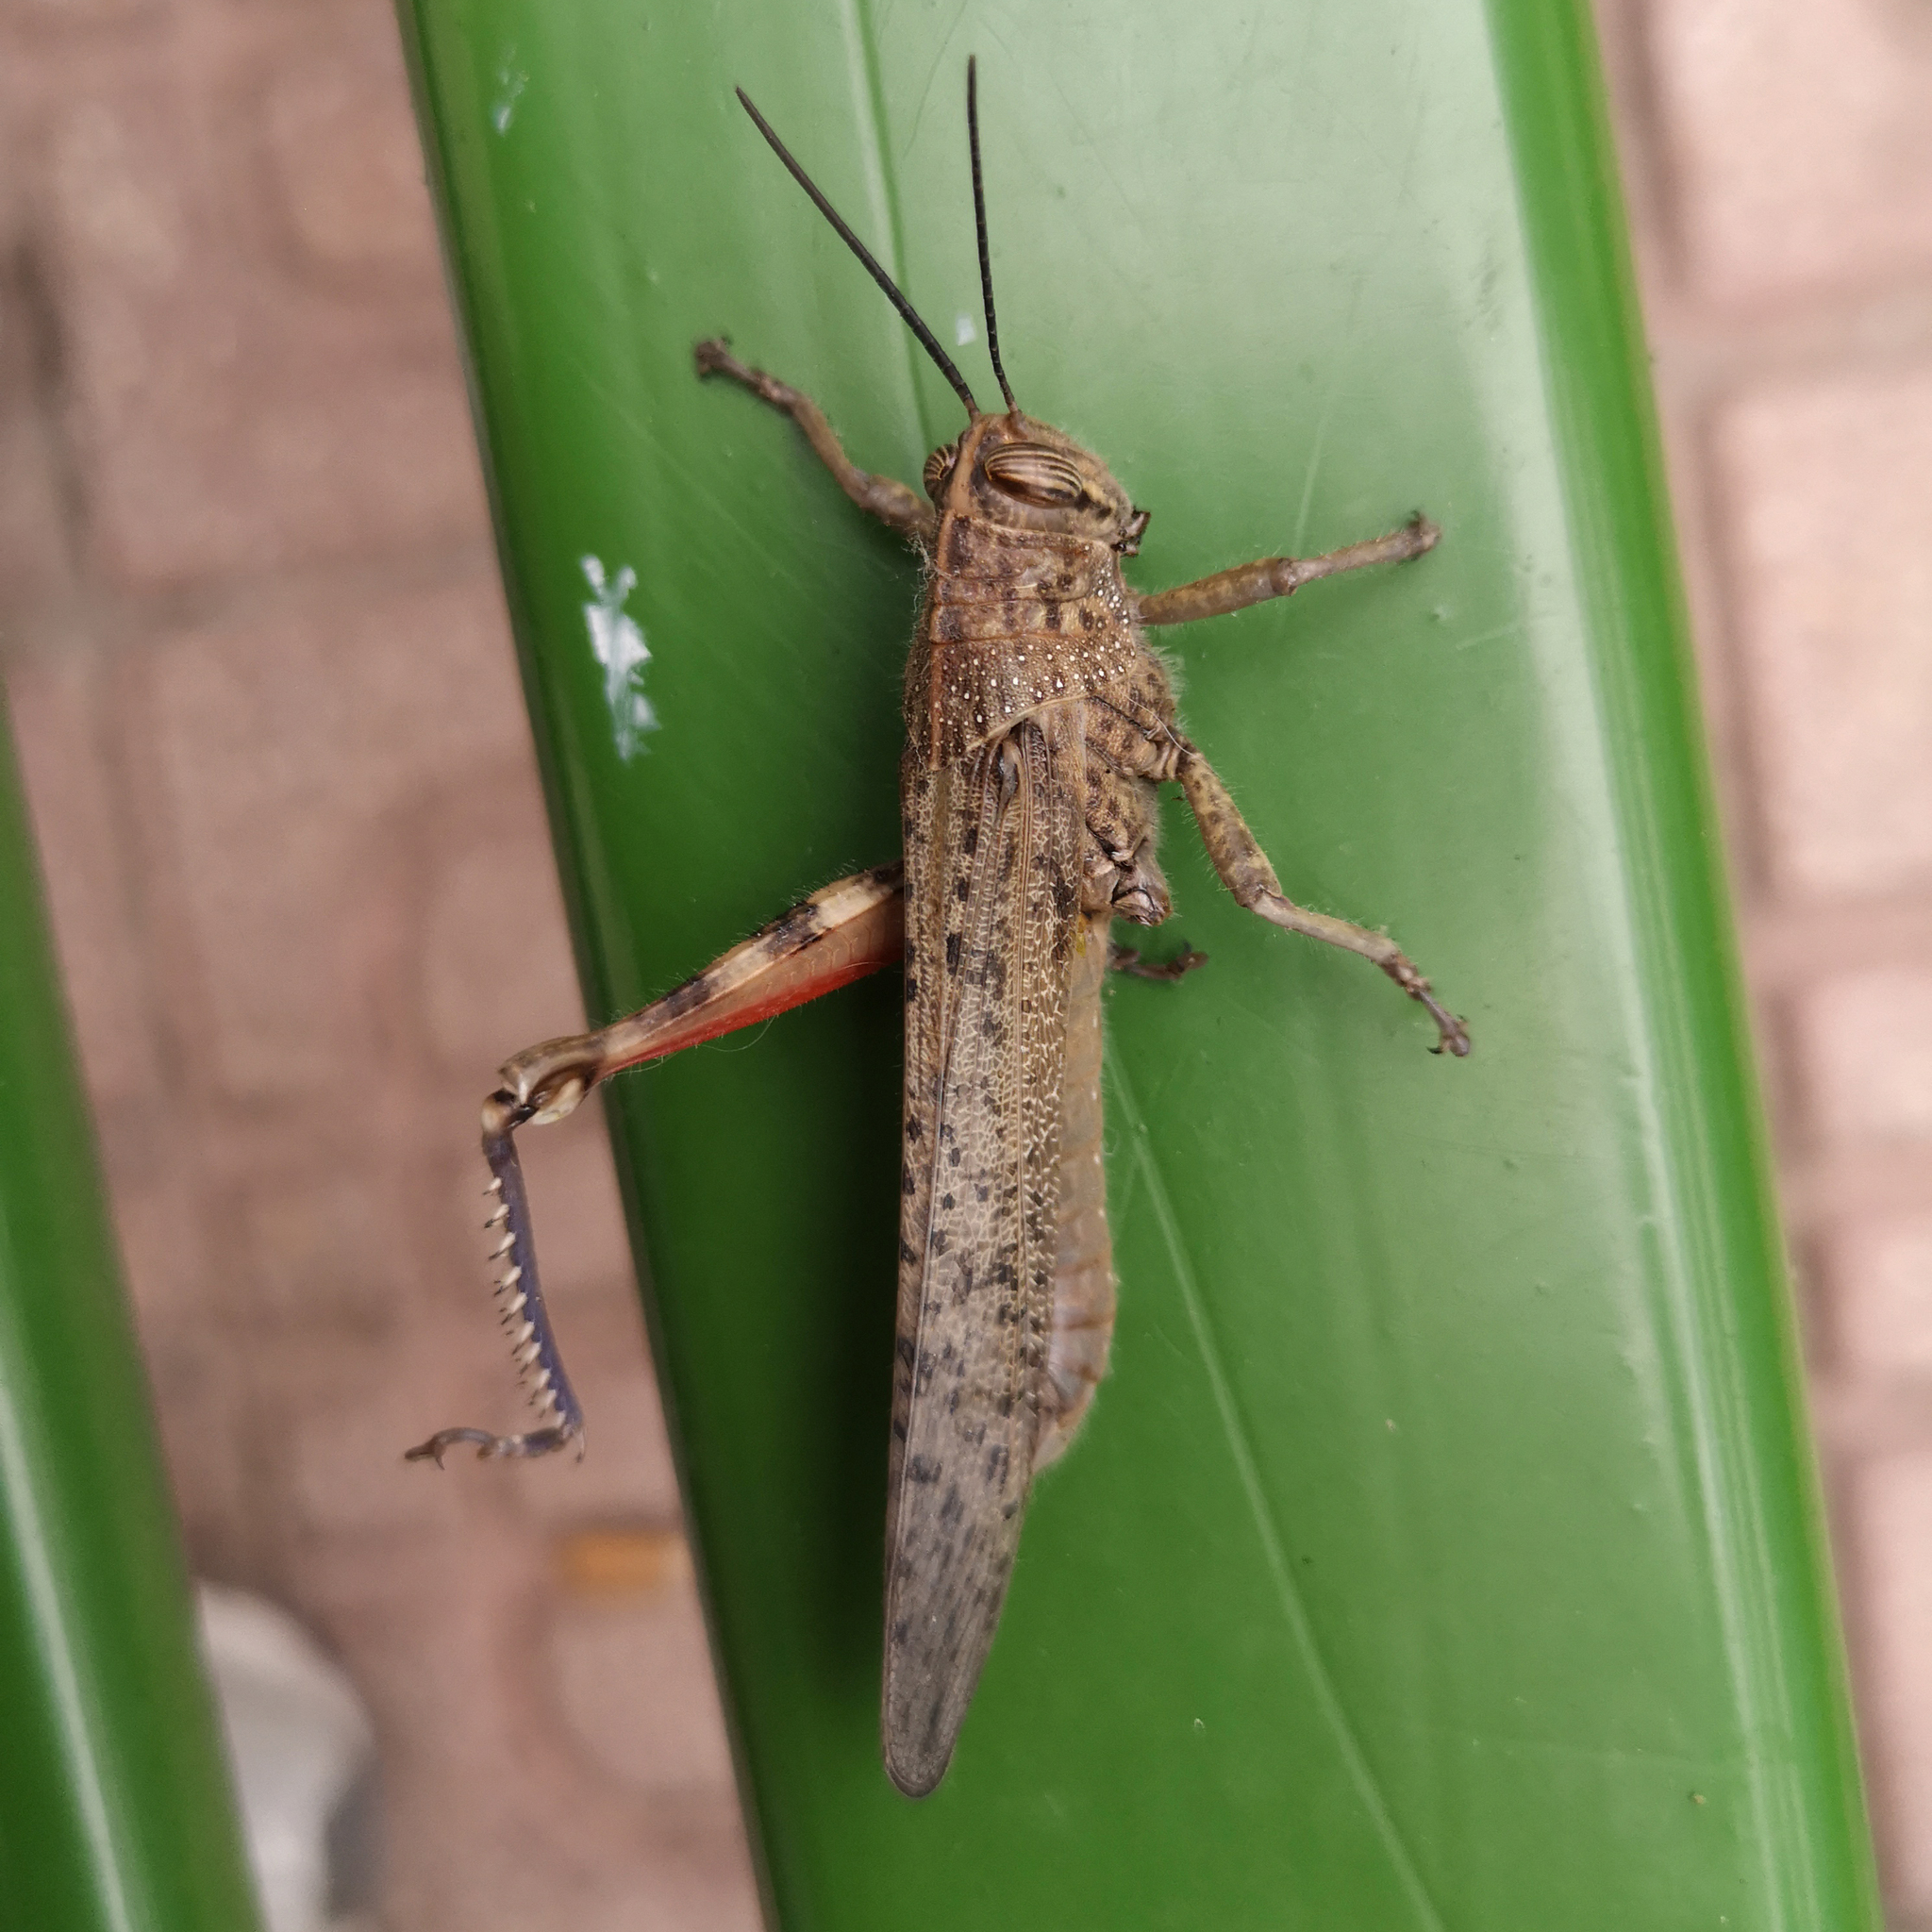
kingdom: Animalia
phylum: Arthropoda
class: Insecta
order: Orthoptera
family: Acrididae
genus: Anacridium
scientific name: Anacridium aegyptium
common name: Egyptian grasshopper
